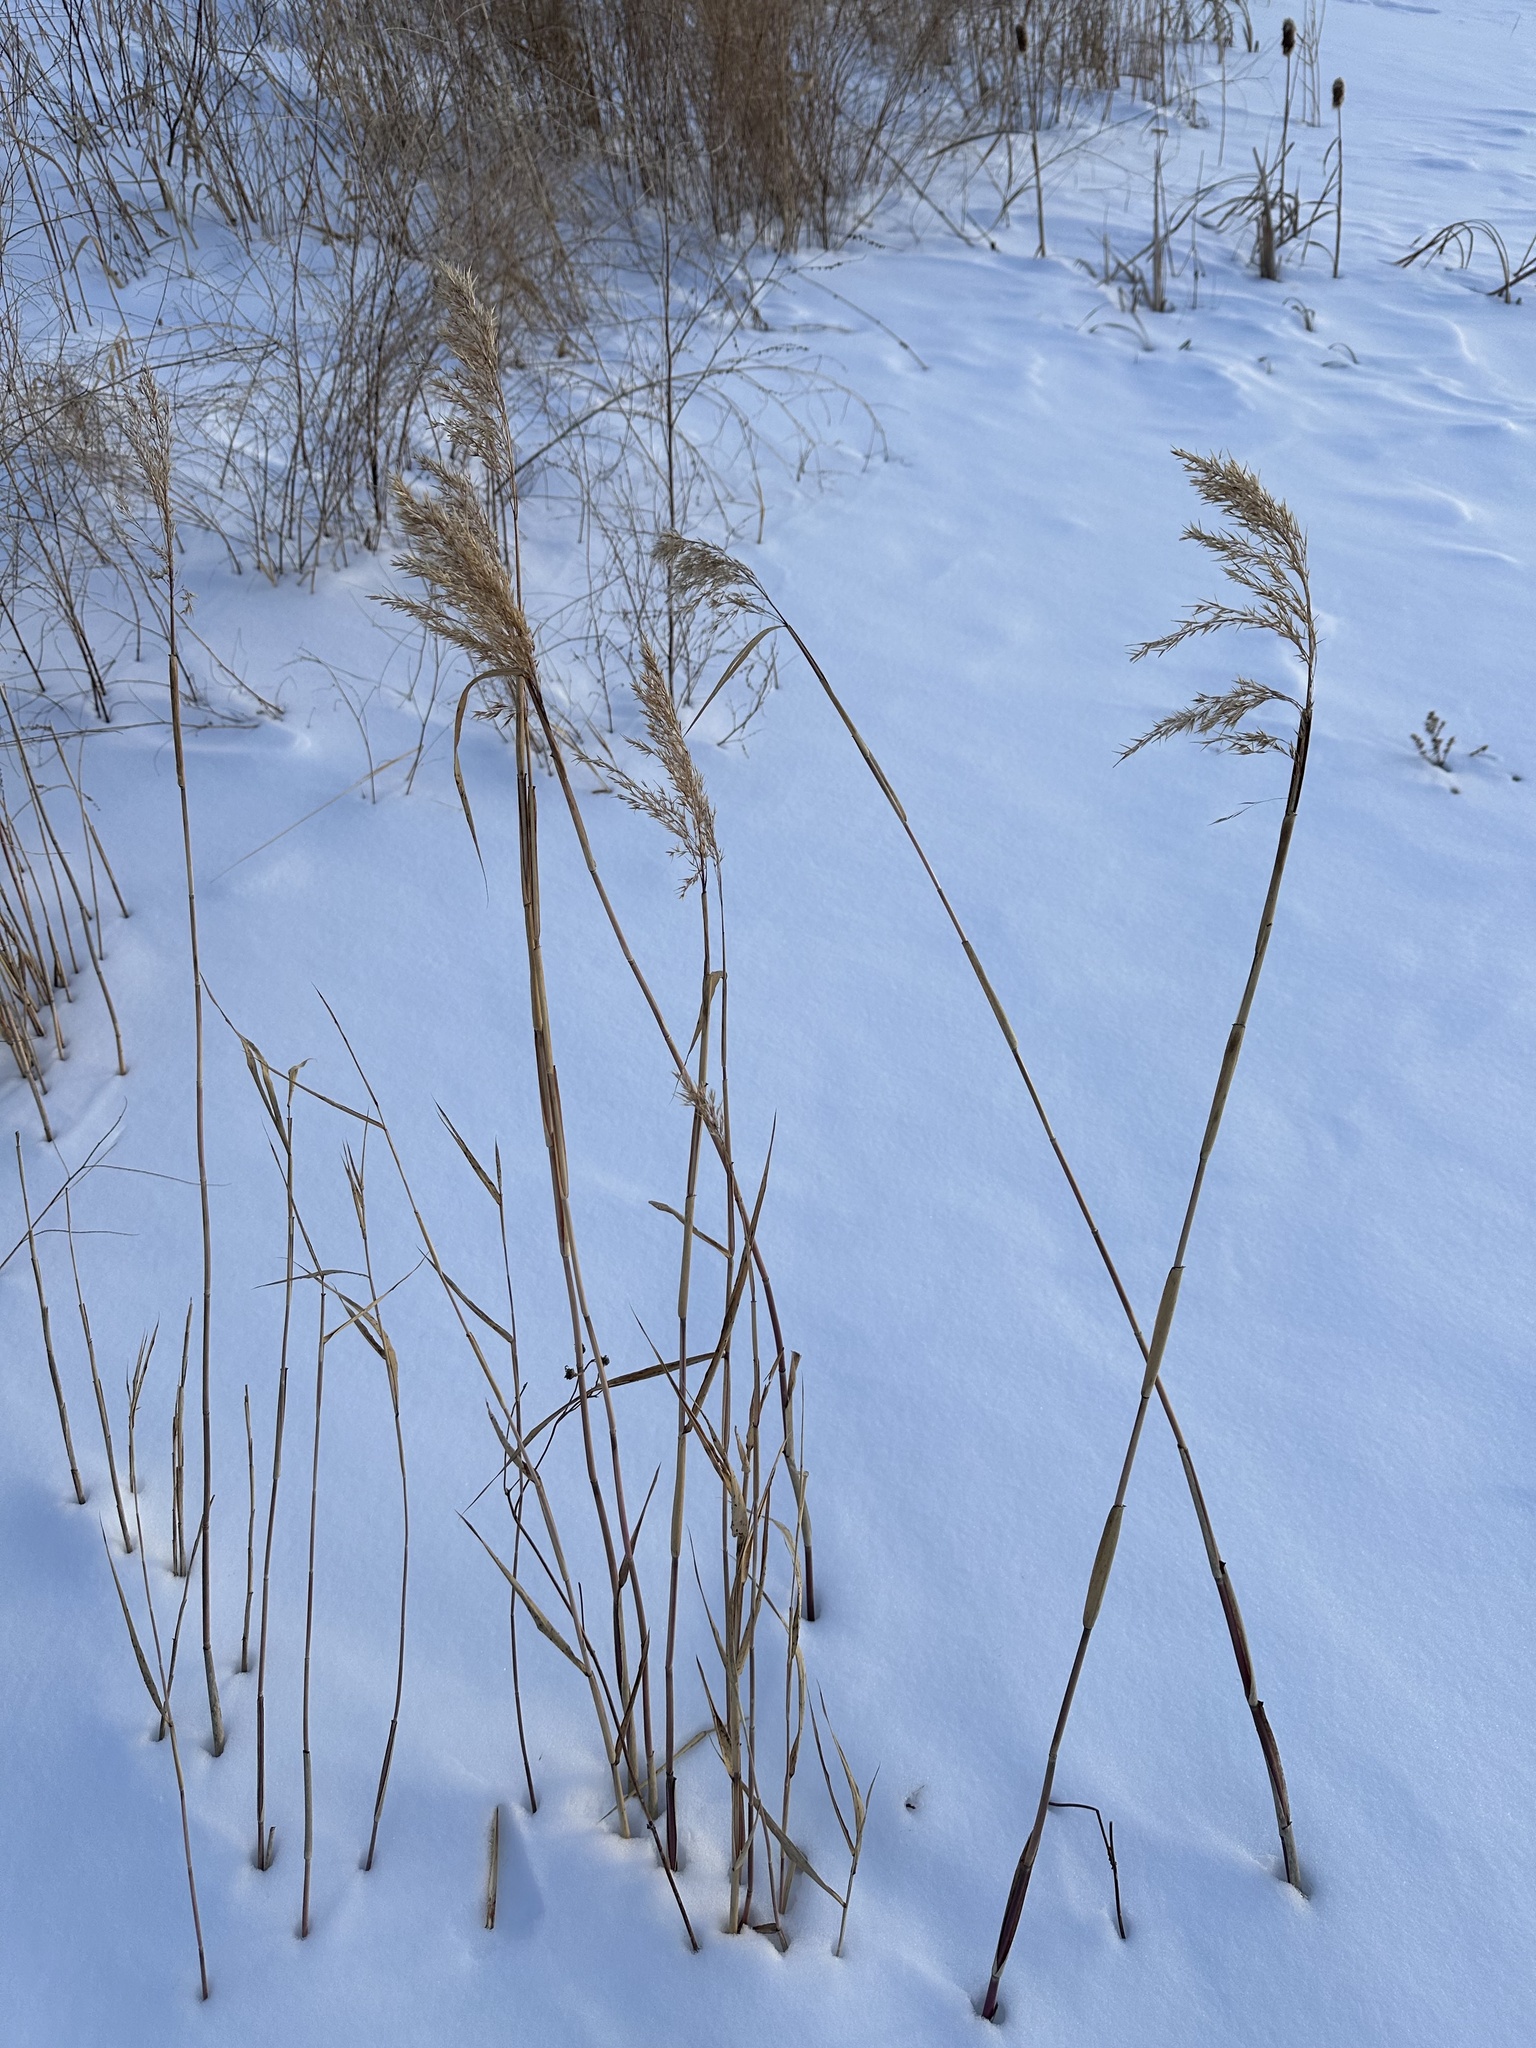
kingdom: Plantae
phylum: Tracheophyta
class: Liliopsida
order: Poales
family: Poaceae
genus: Phragmites
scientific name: Phragmites australis
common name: Common reed
